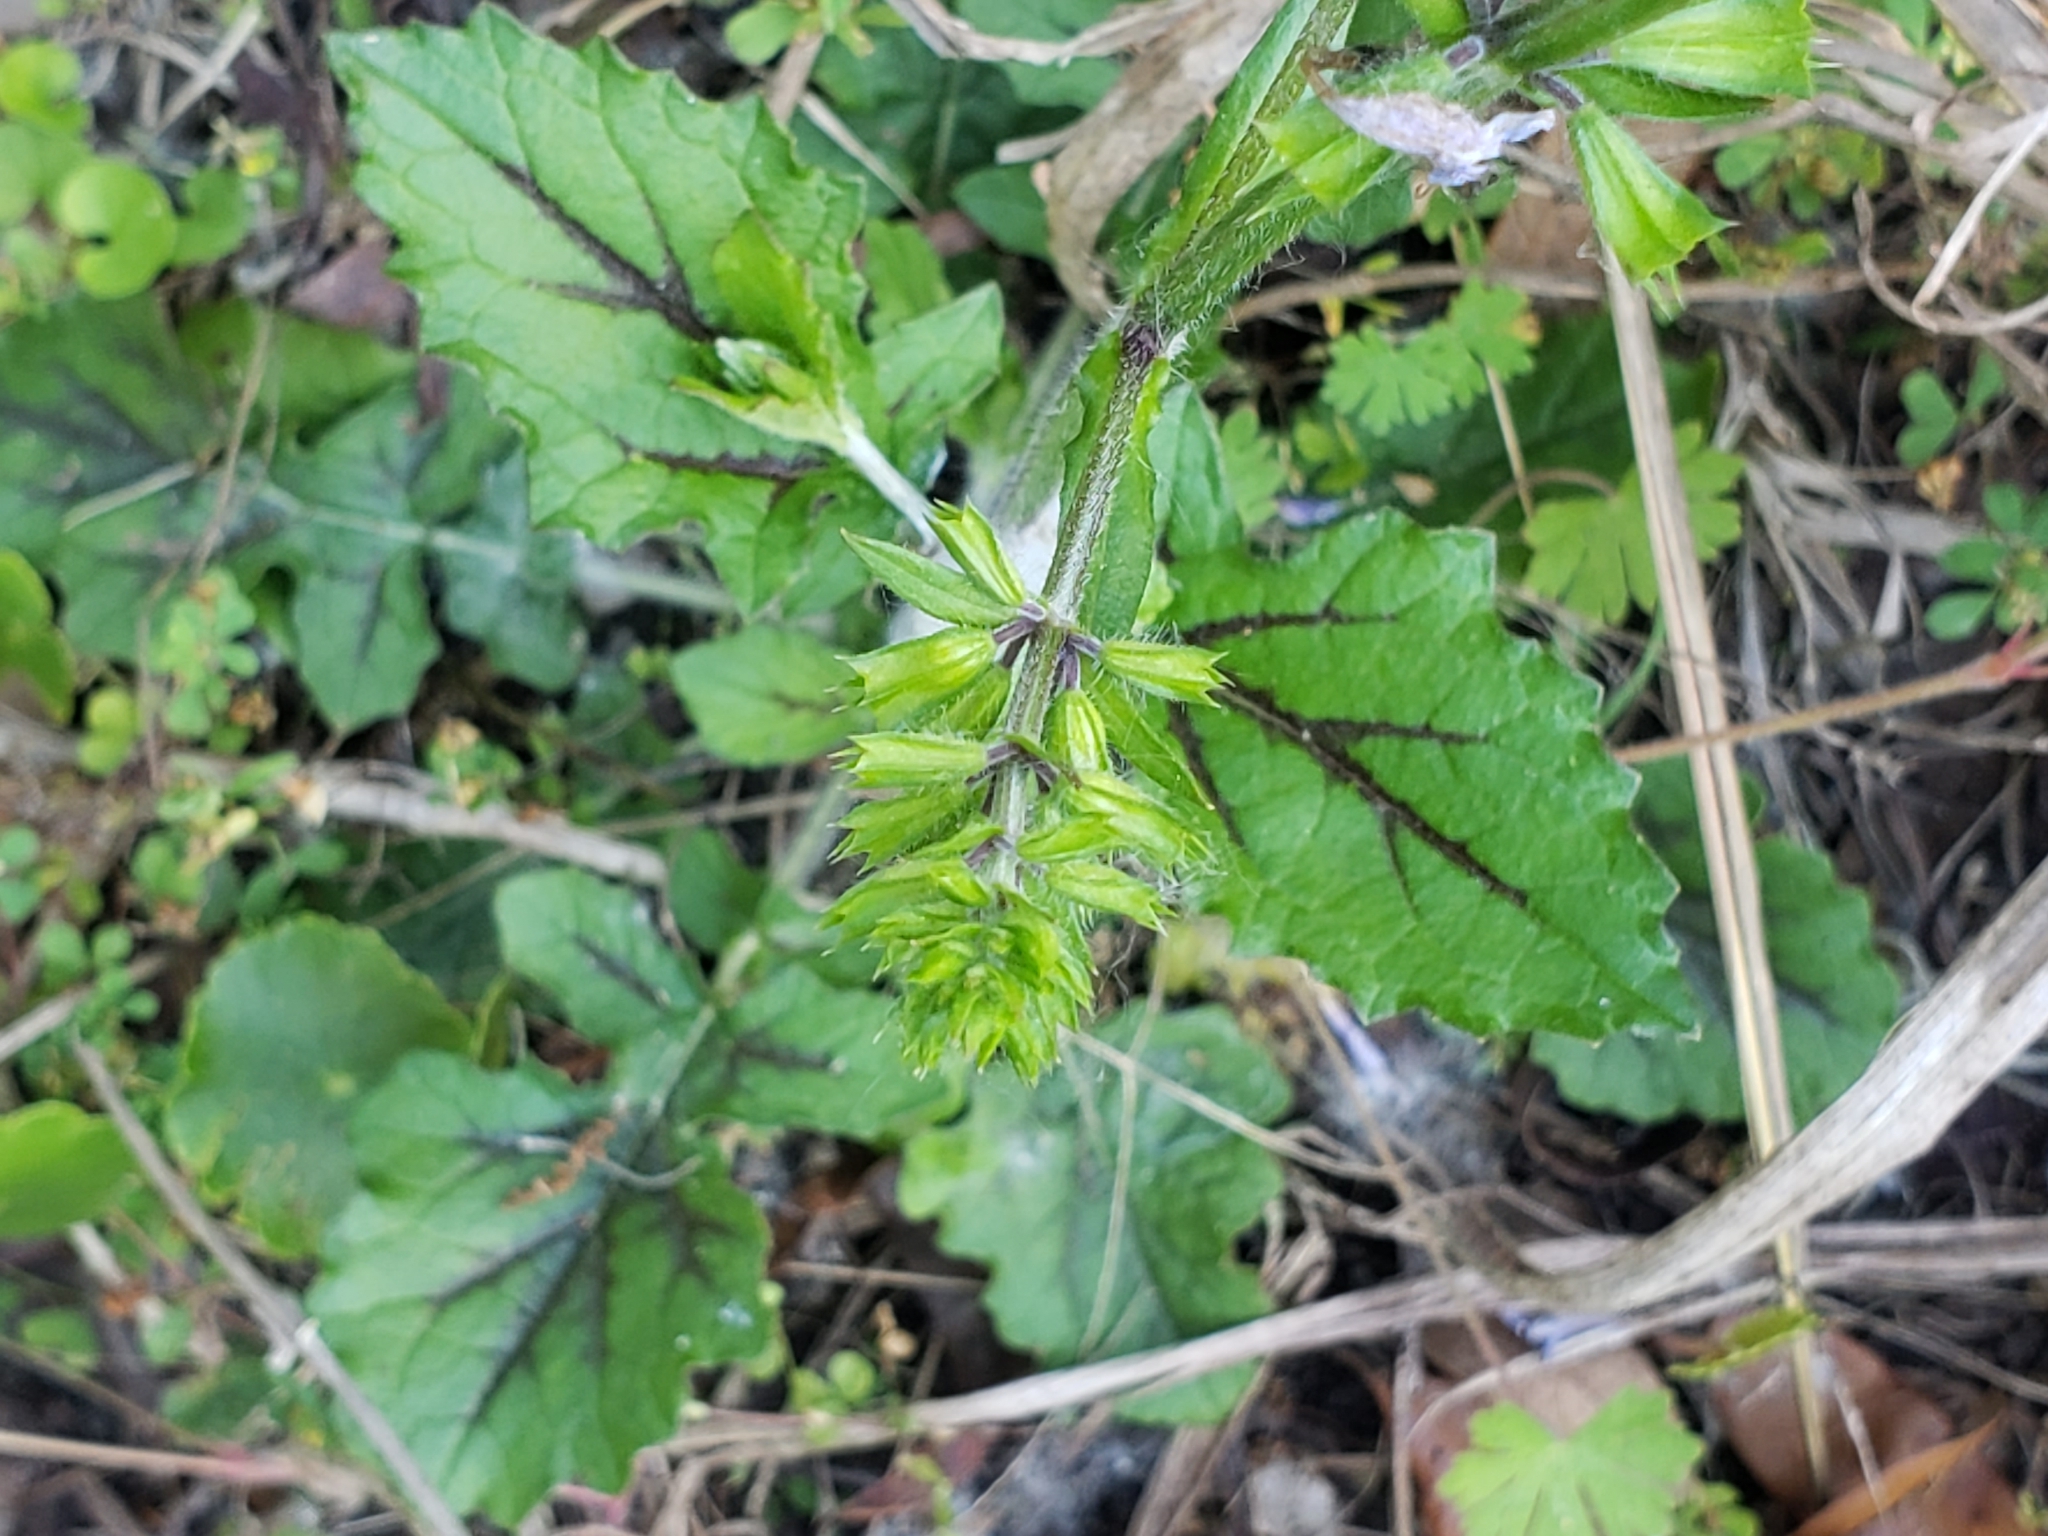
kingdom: Plantae
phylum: Tracheophyta
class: Magnoliopsida
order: Lamiales
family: Lamiaceae
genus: Salvia
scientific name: Salvia lyrata
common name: Cancerweed
